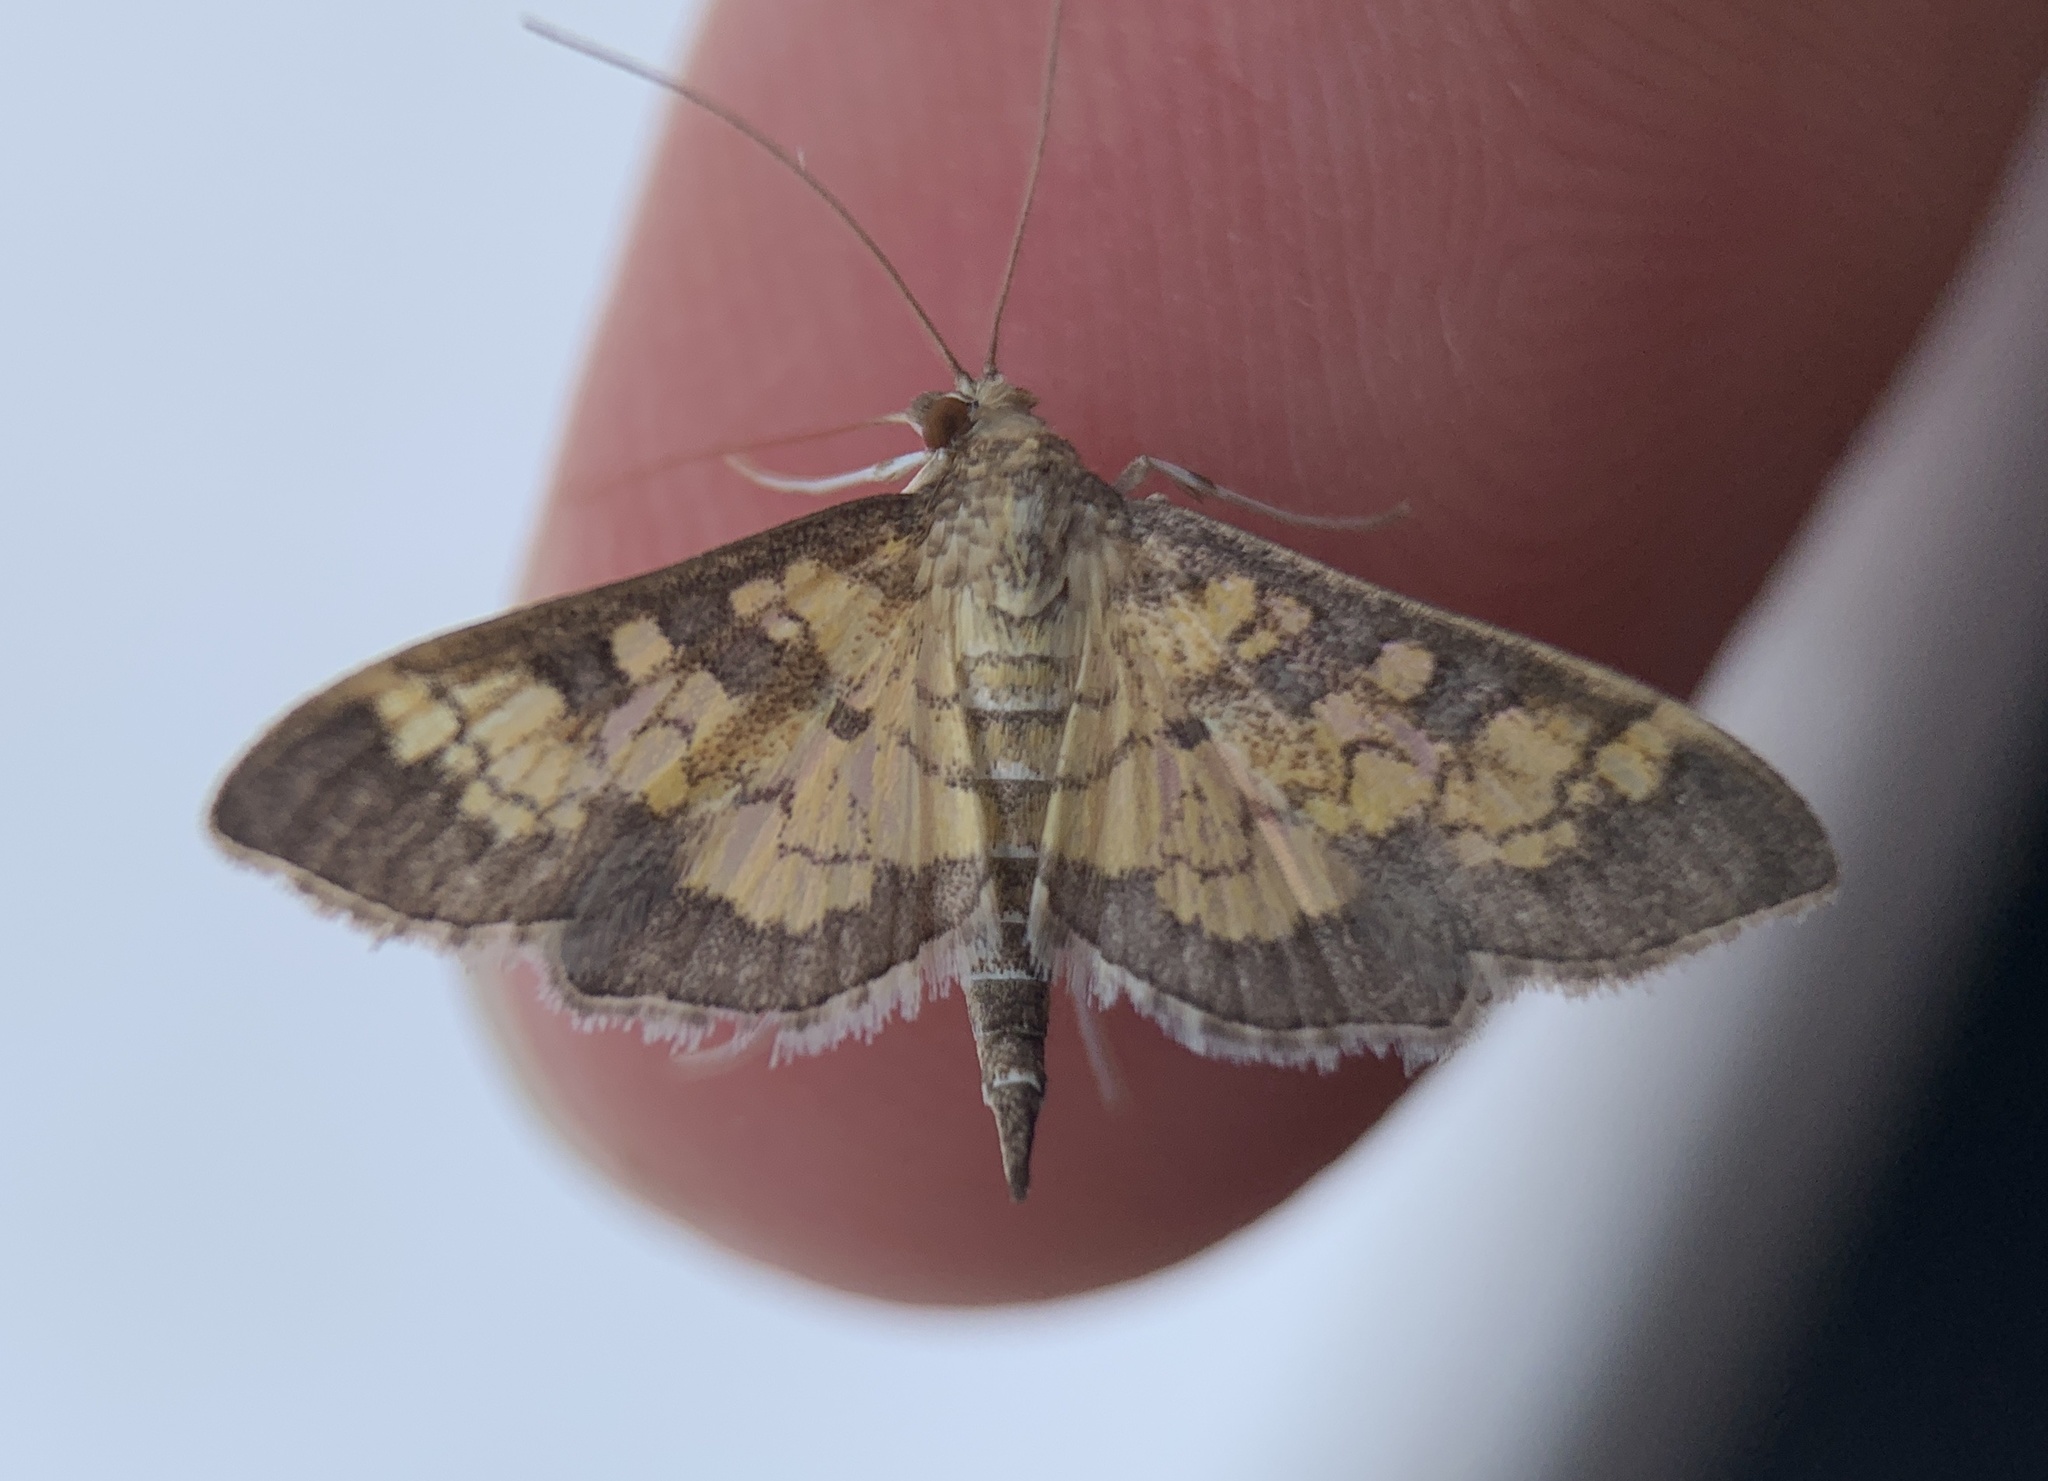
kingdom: Animalia
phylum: Arthropoda
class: Insecta
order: Lepidoptera
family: Crambidae
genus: Epipagis
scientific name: Epipagis adipaloides
